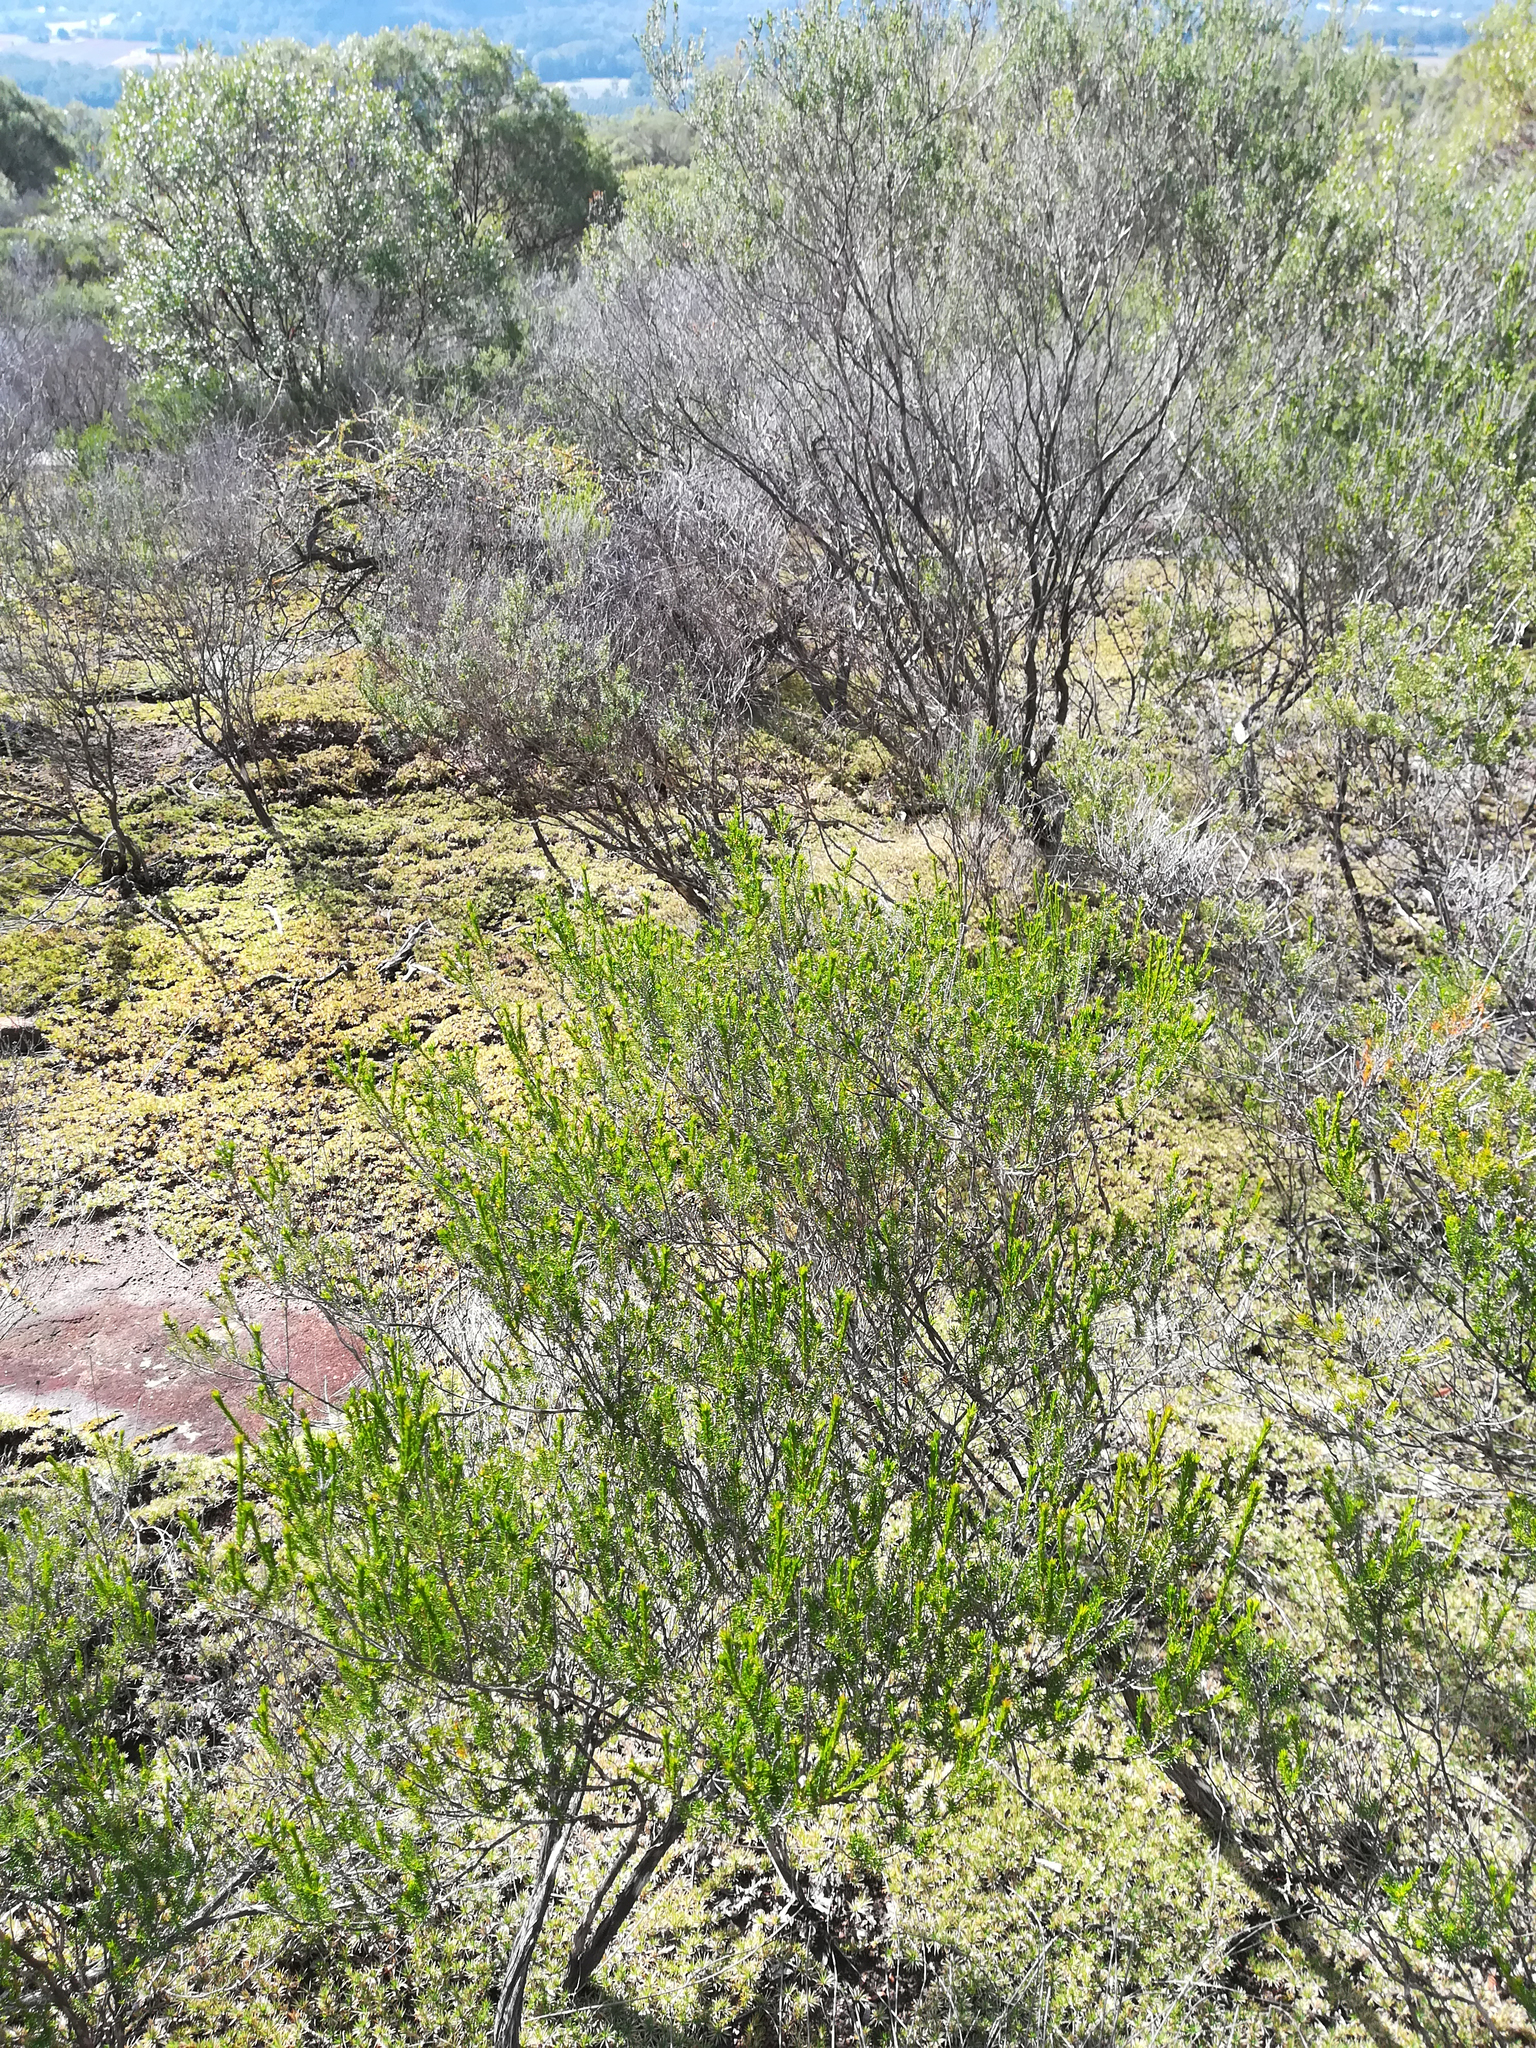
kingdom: Plantae
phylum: Tracheophyta
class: Magnoliopsida
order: Myrtales
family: Myrtaceae
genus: Calytrix
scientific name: Calytrix tetragona
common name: Common fringe myrtle
